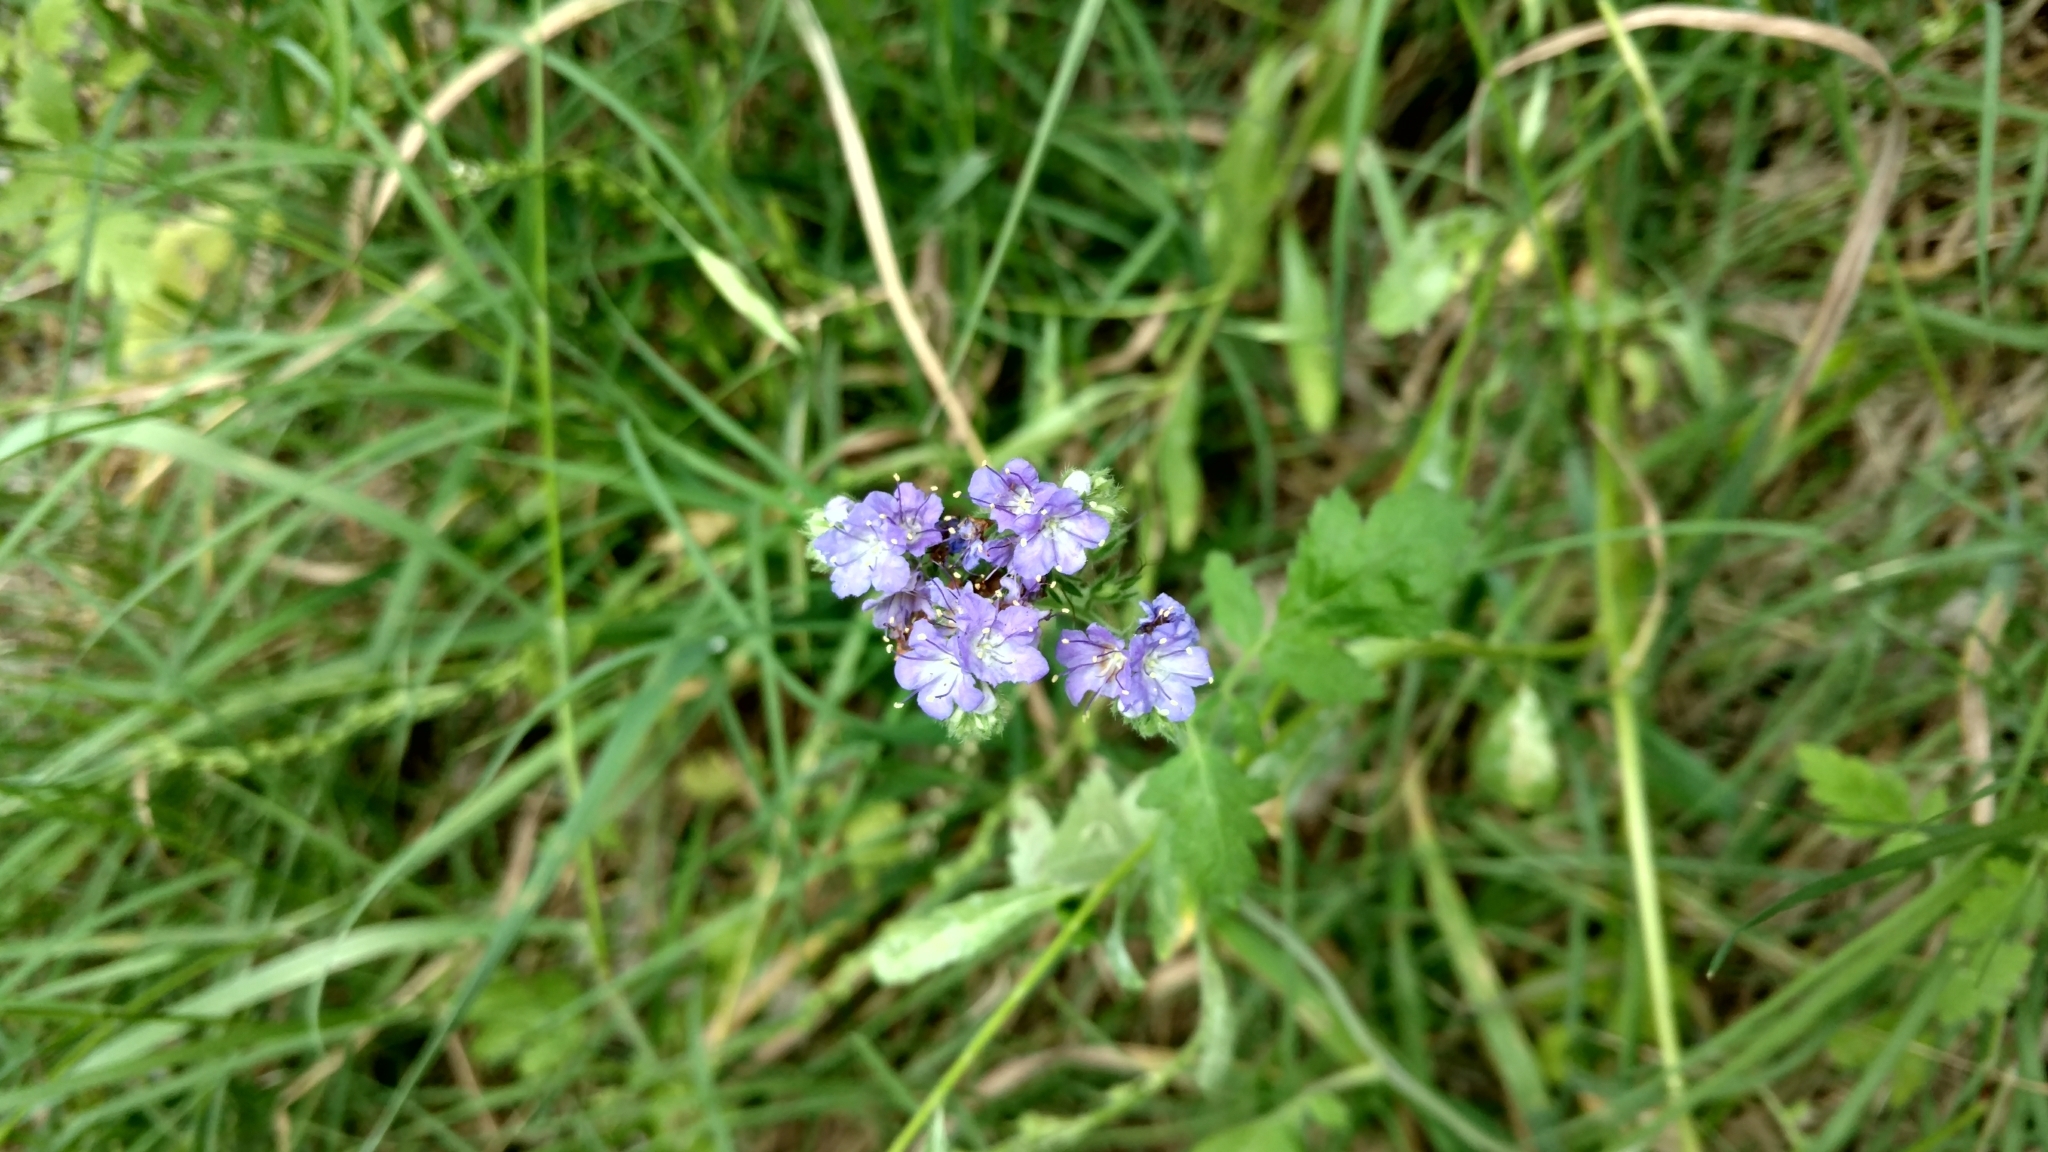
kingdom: Plantae
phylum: Tracheophyta
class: Magnoliopsida
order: Boraginales
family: Hydrophyllaceae
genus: Phacelia
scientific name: Phacelia congesta
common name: Blue curls
